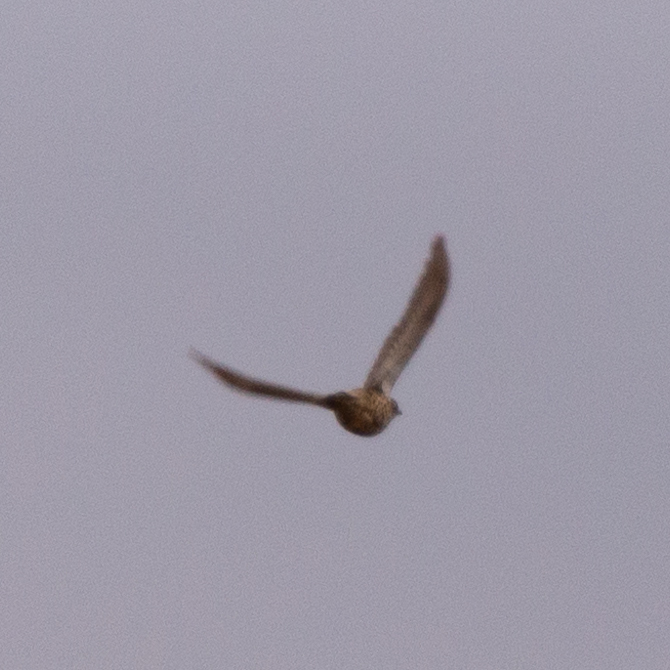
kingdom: Animalia
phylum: Chordata
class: Aves
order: Passeriformes
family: Turdidae
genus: Turdus
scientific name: Turdus viscivorus
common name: Mistle thrush
